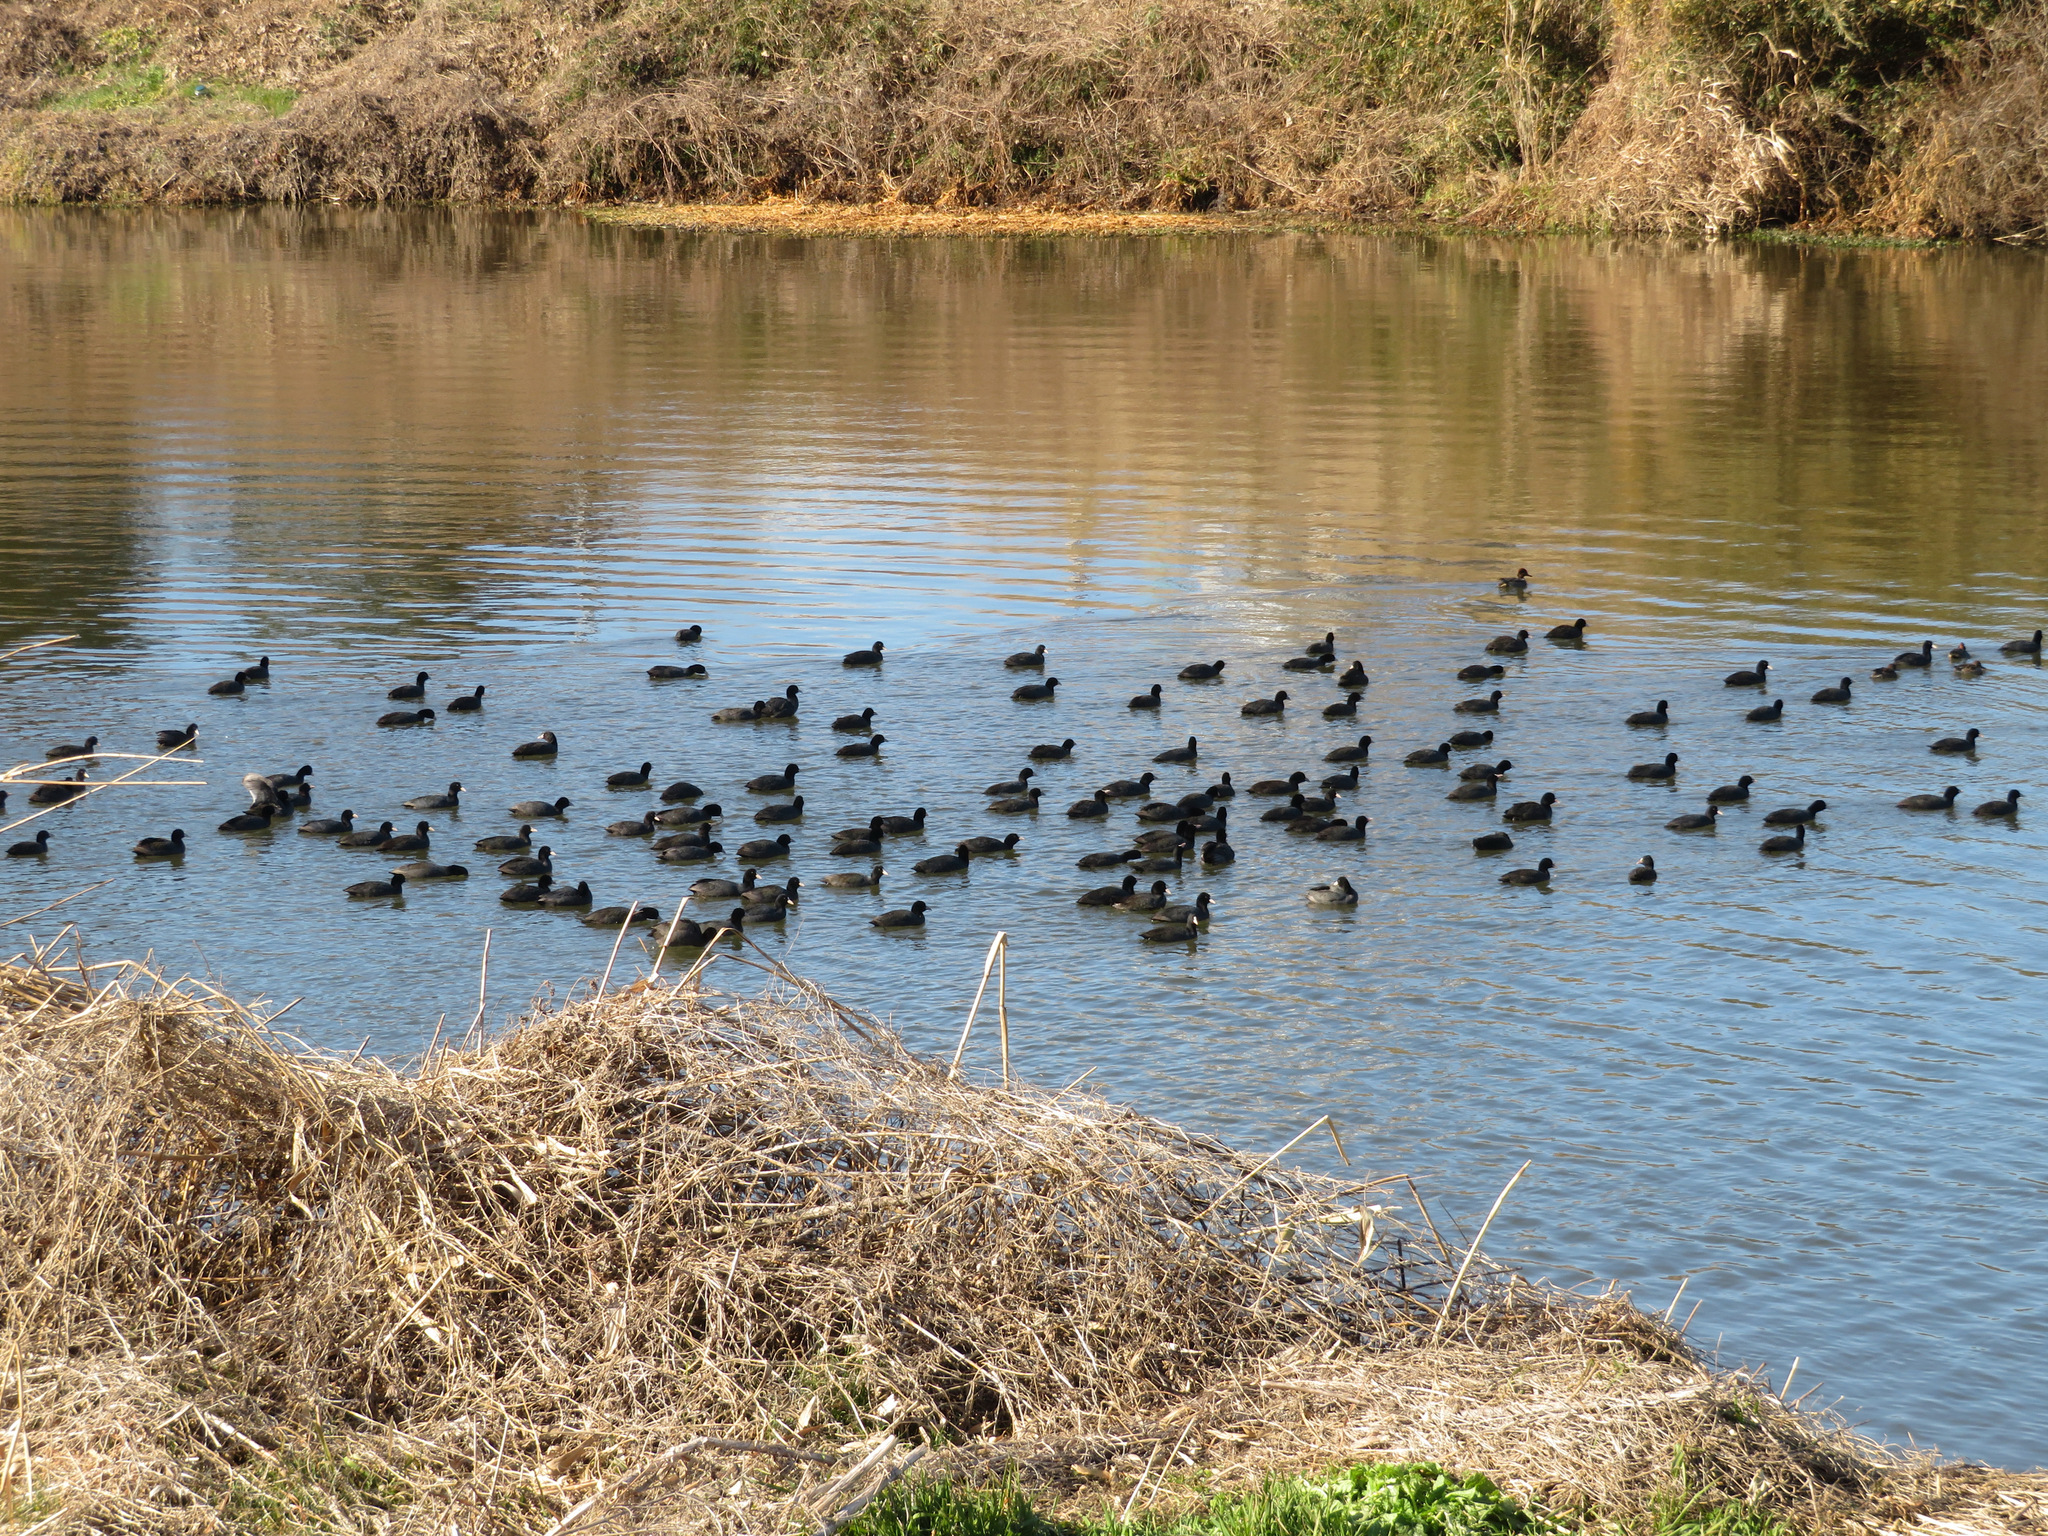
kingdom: Animalia
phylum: Chordata
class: Aves
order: Gruiformes
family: Rallidae
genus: Fulica
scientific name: Fulica atra
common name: Eurasian coot
